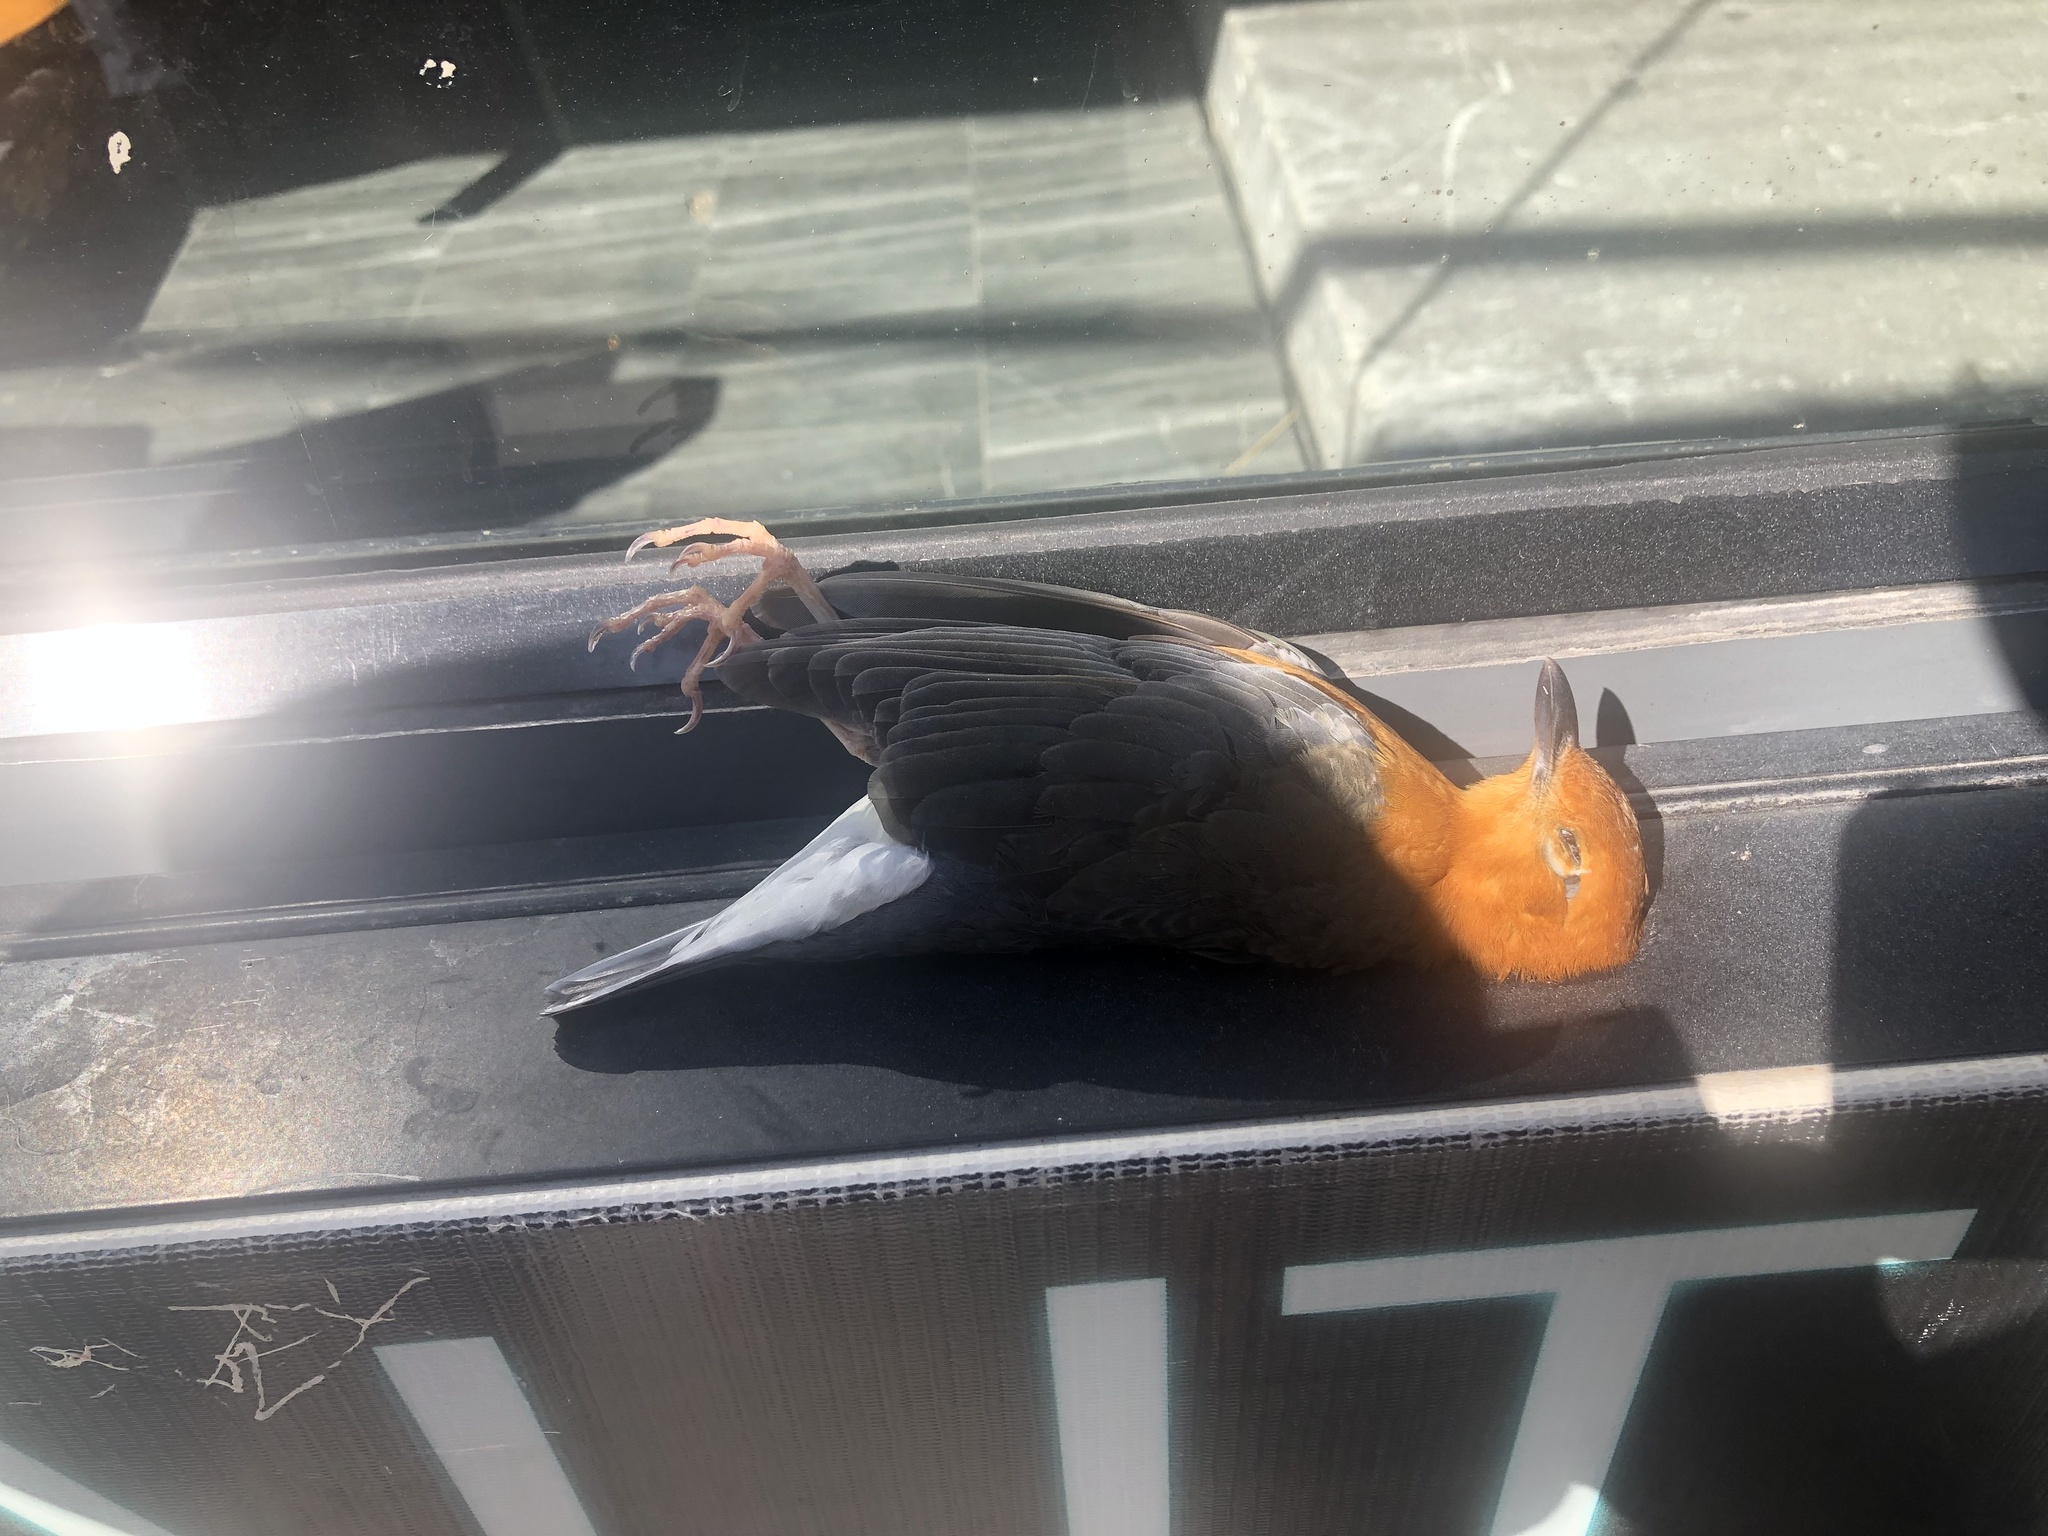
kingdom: Animalia
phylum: Chordata
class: Aves
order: Passeriformes
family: Turdidae
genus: Geokichla
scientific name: Geokichla citrina
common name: Orange-headed thrush
